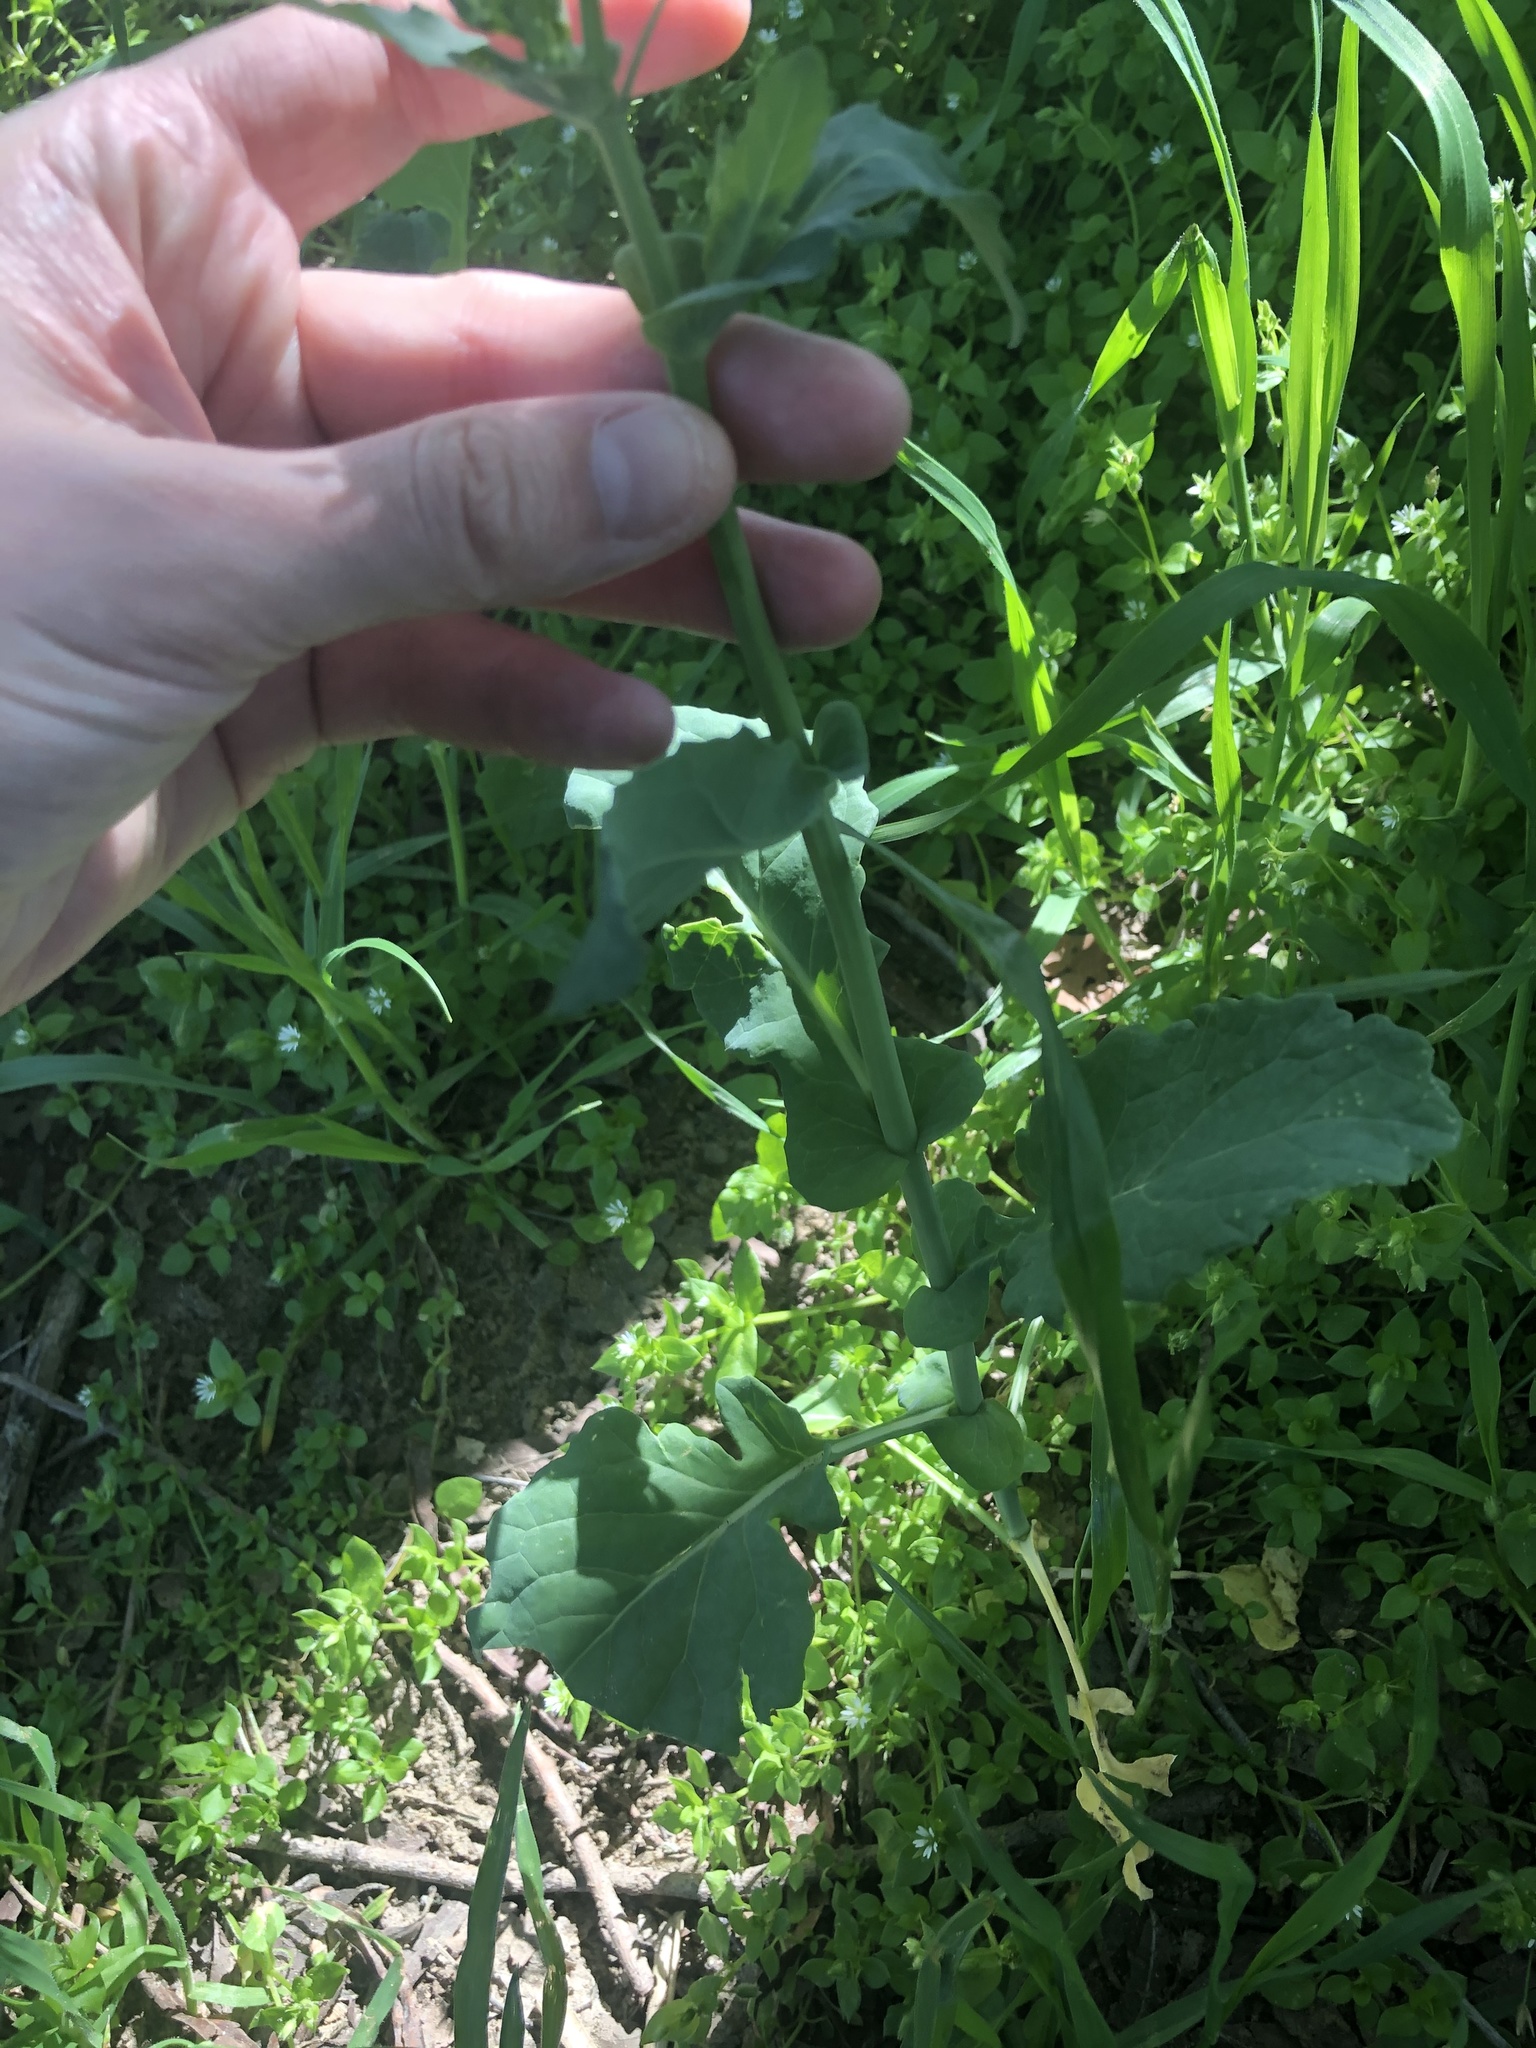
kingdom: Plantae
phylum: Tracheophyta
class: Magnoliopsida
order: Brassicales
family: Brassicaceae
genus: Brassica
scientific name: Brassica rapa
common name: Field mustard
